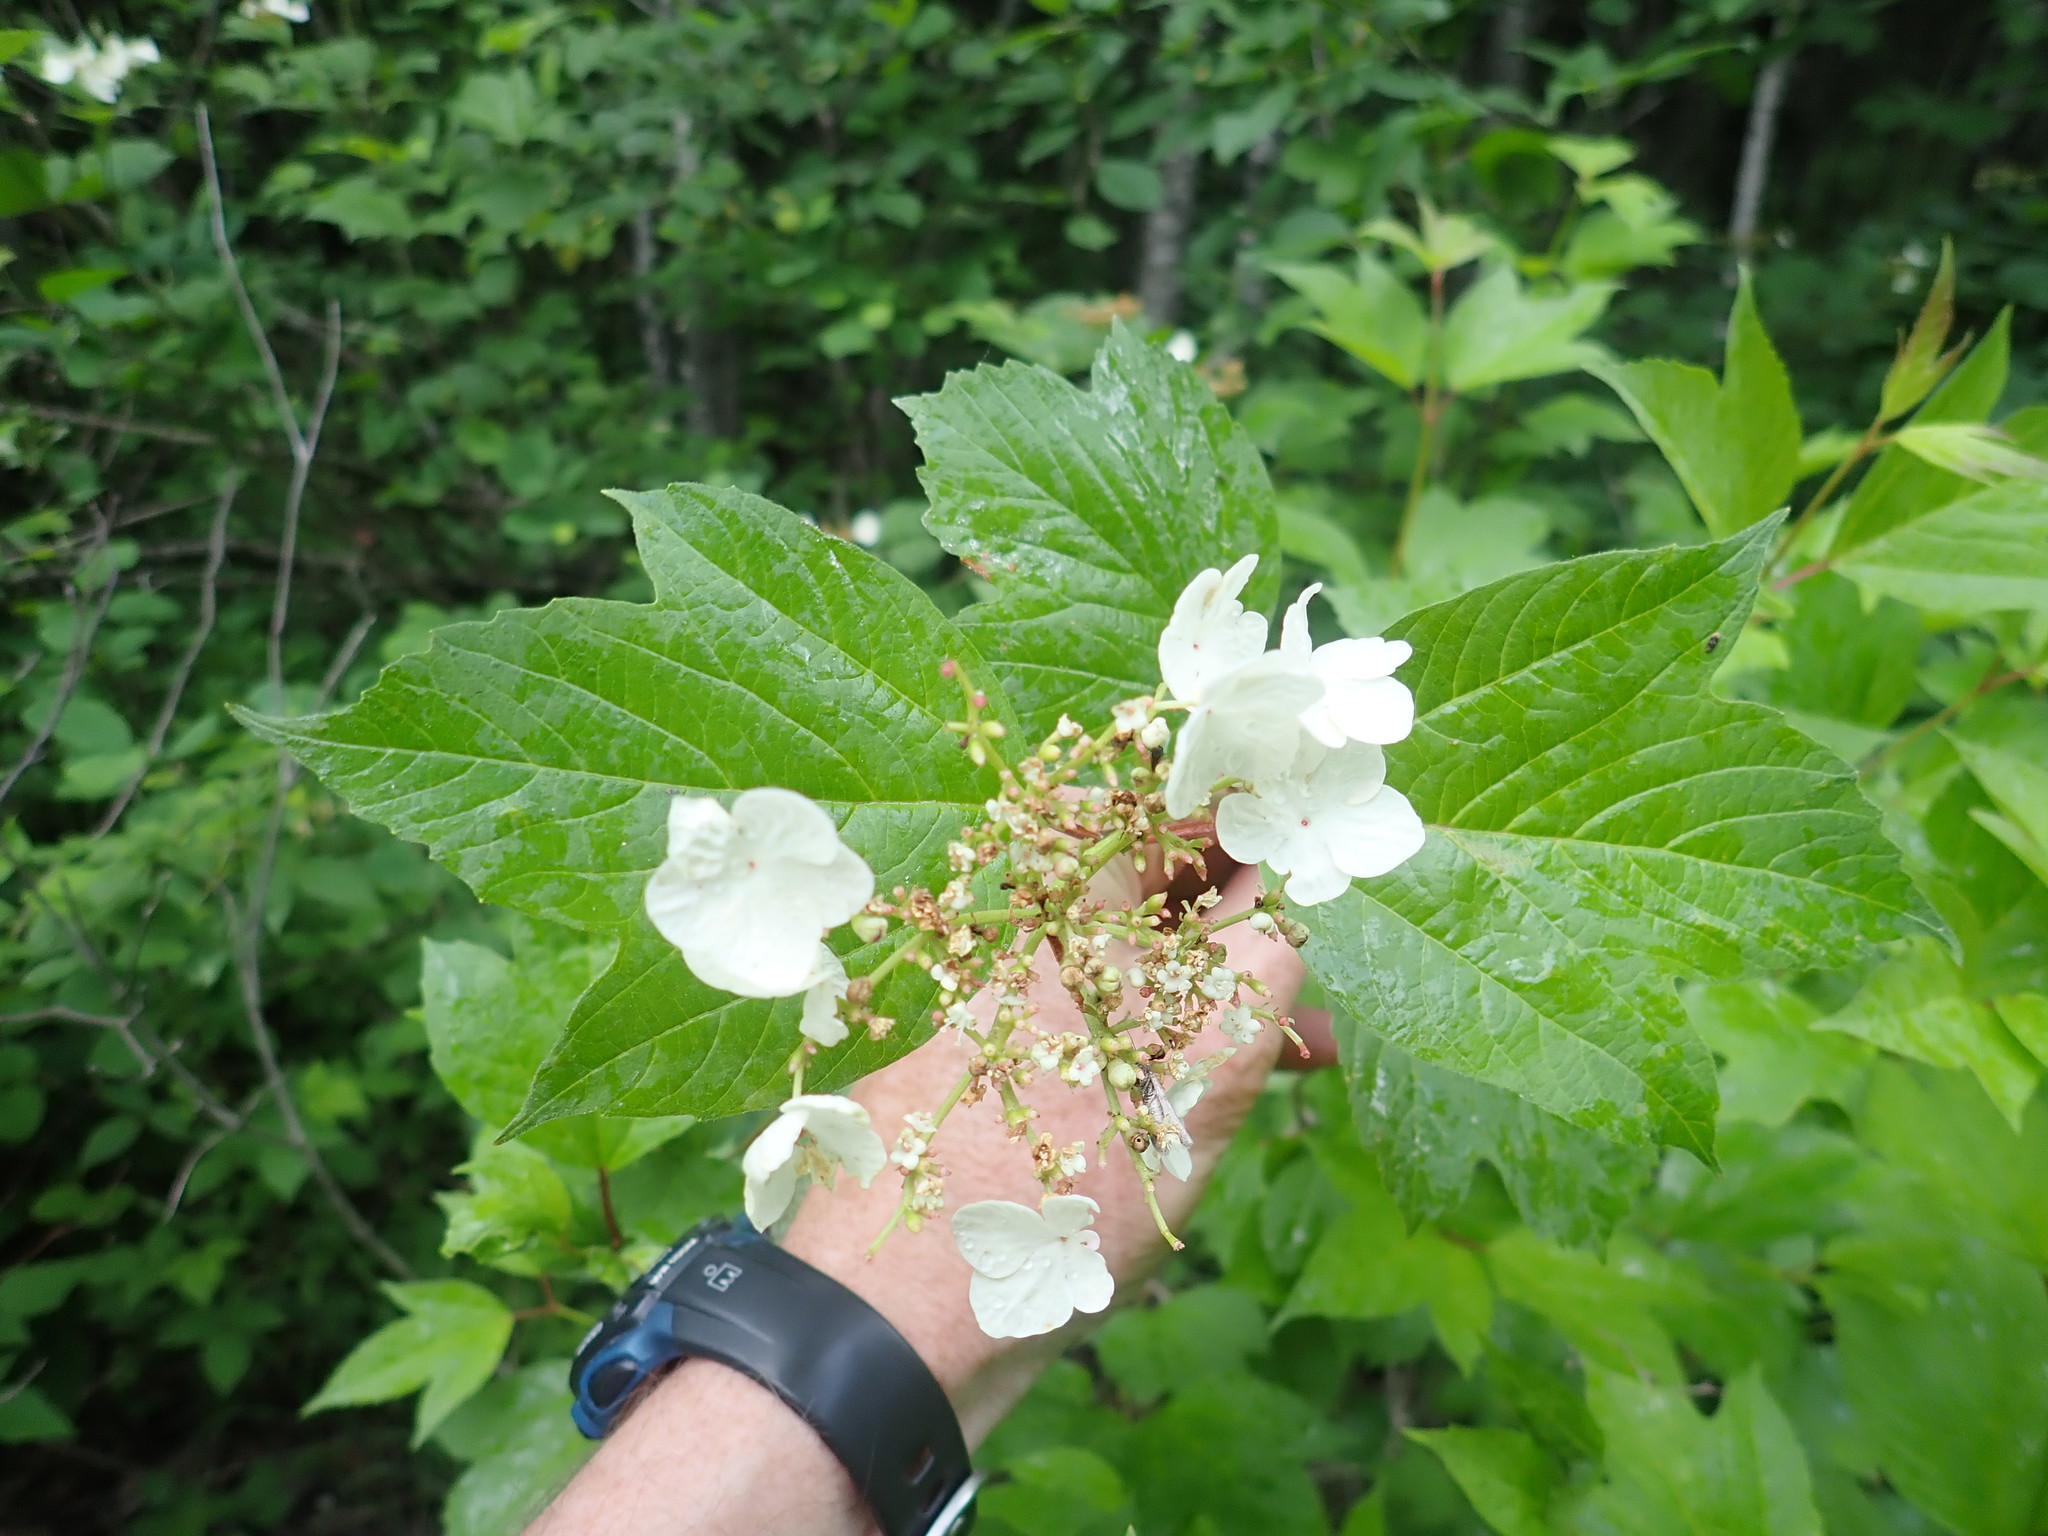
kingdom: Plantae
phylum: Tracheophyta
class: Magnoliopsida
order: Dipsacales
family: Viburnaceae
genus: Viburnum
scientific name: Viburnum opulus
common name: Guelder-rose
